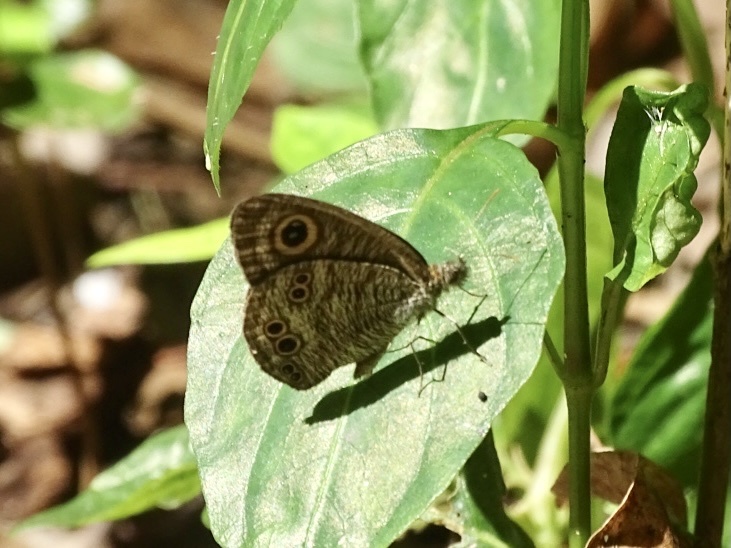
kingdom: Animalia
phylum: Arthropoda
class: Insecta
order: Lepidoptera
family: Nymphalidae
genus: Ypthima
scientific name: Ypthima baldus
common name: Common five-ring
